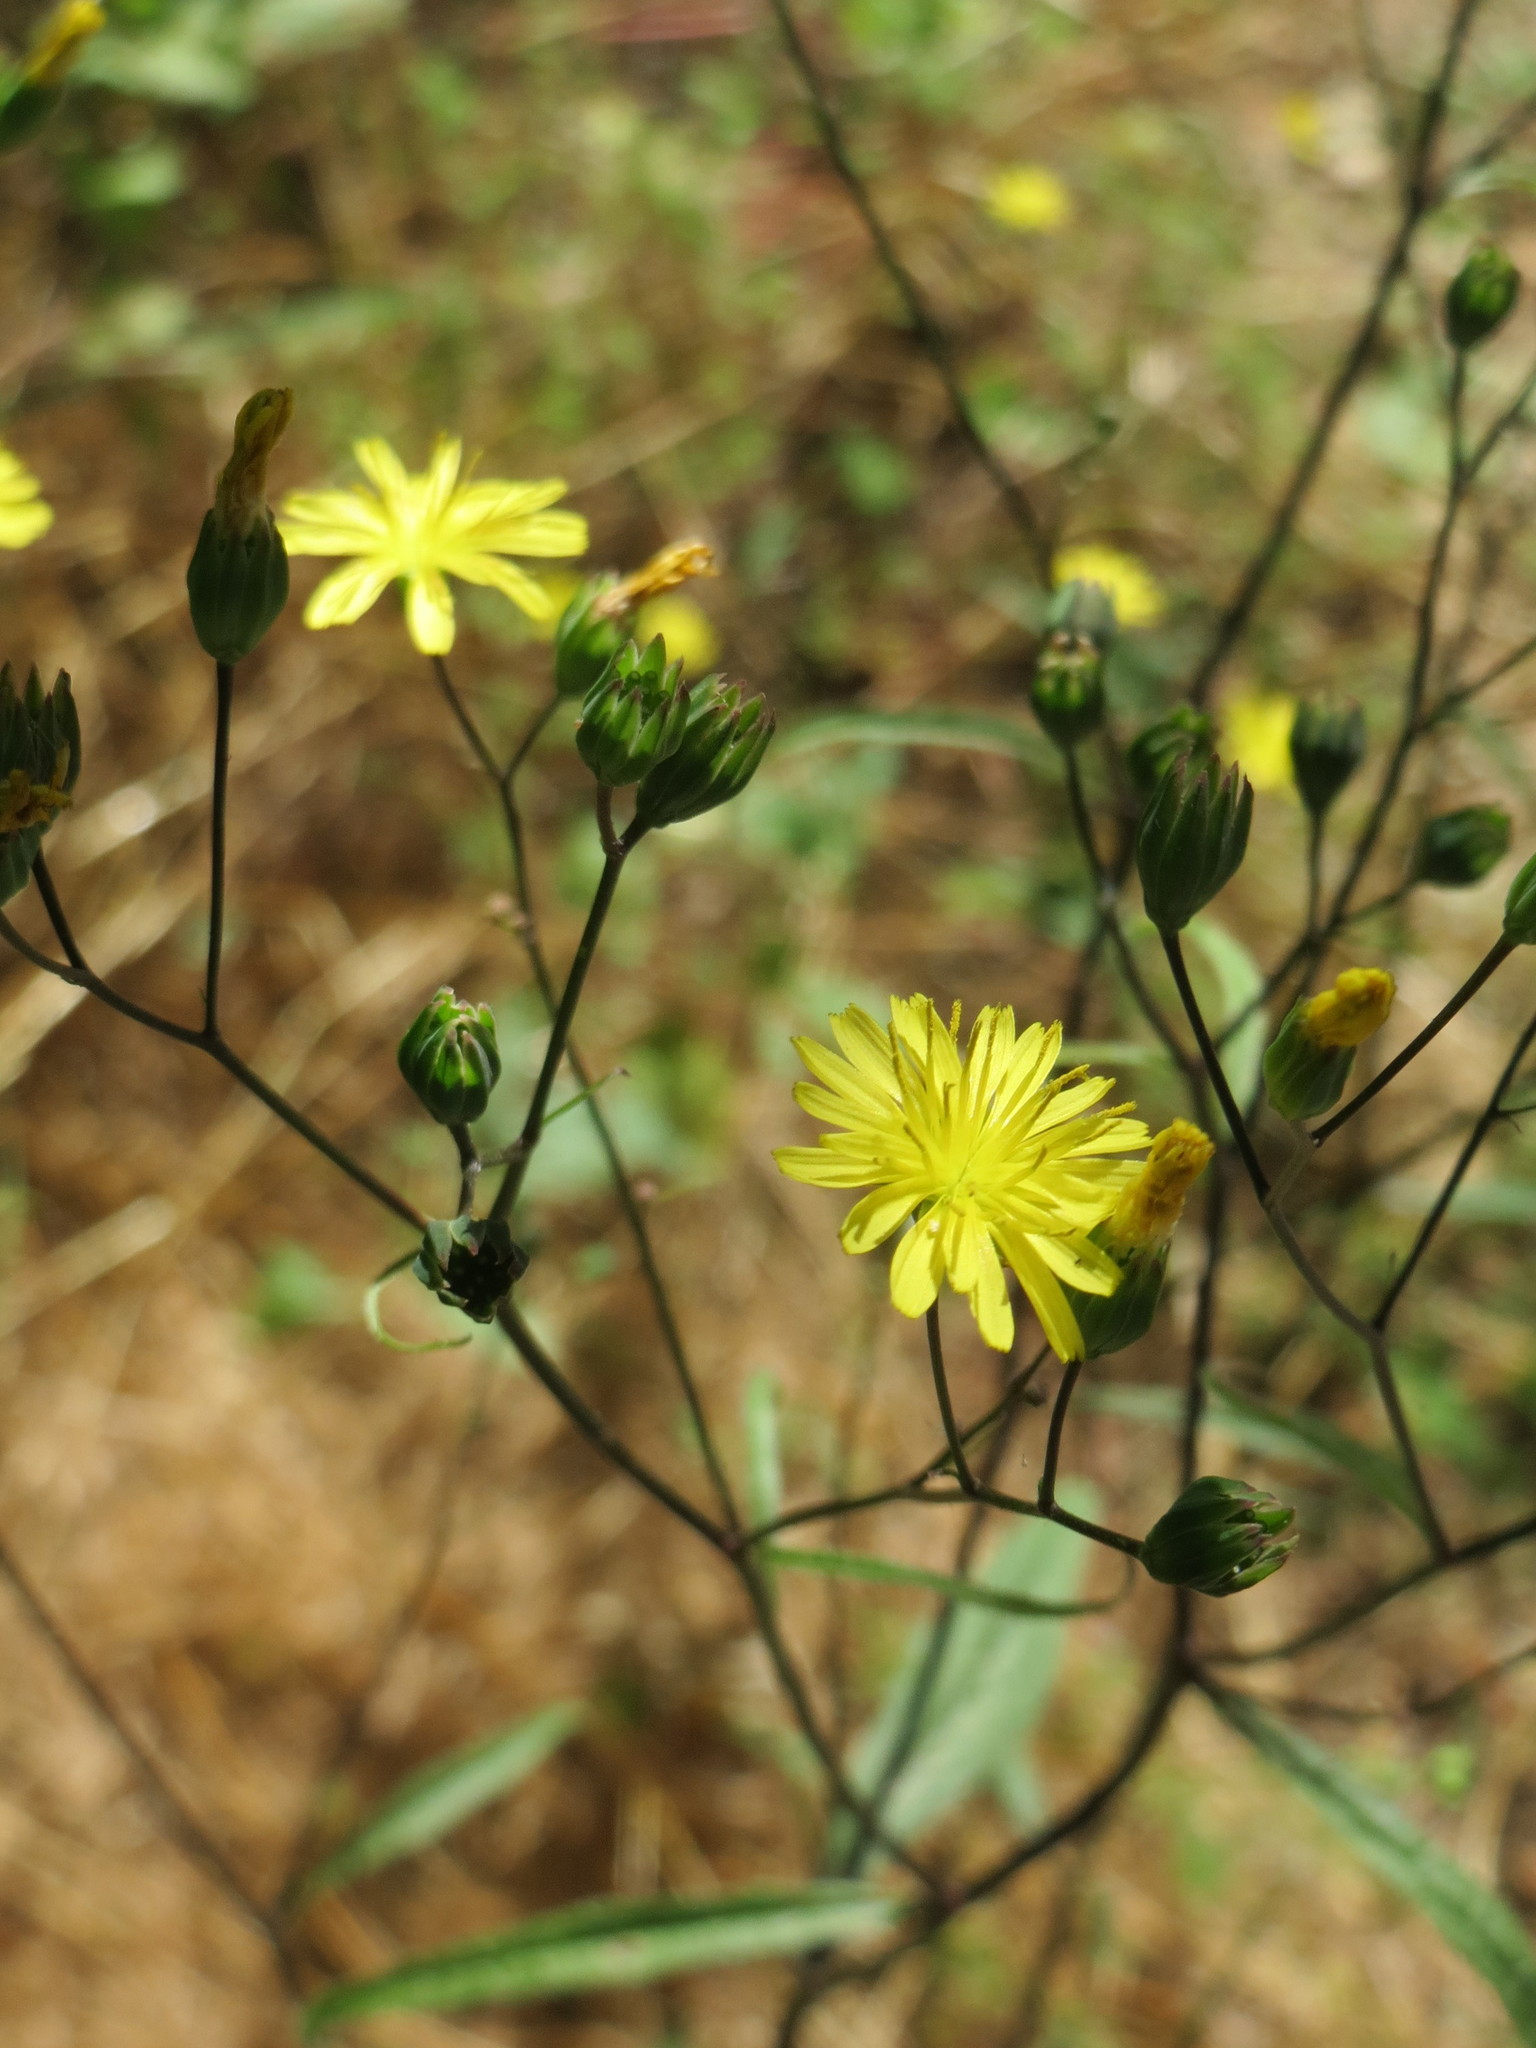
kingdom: Plantae
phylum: Tracheophyta
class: Magnoliopsida
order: Asterales
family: Asteraceae
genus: Lapsana
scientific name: Lapsana communis
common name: Nipplewort
